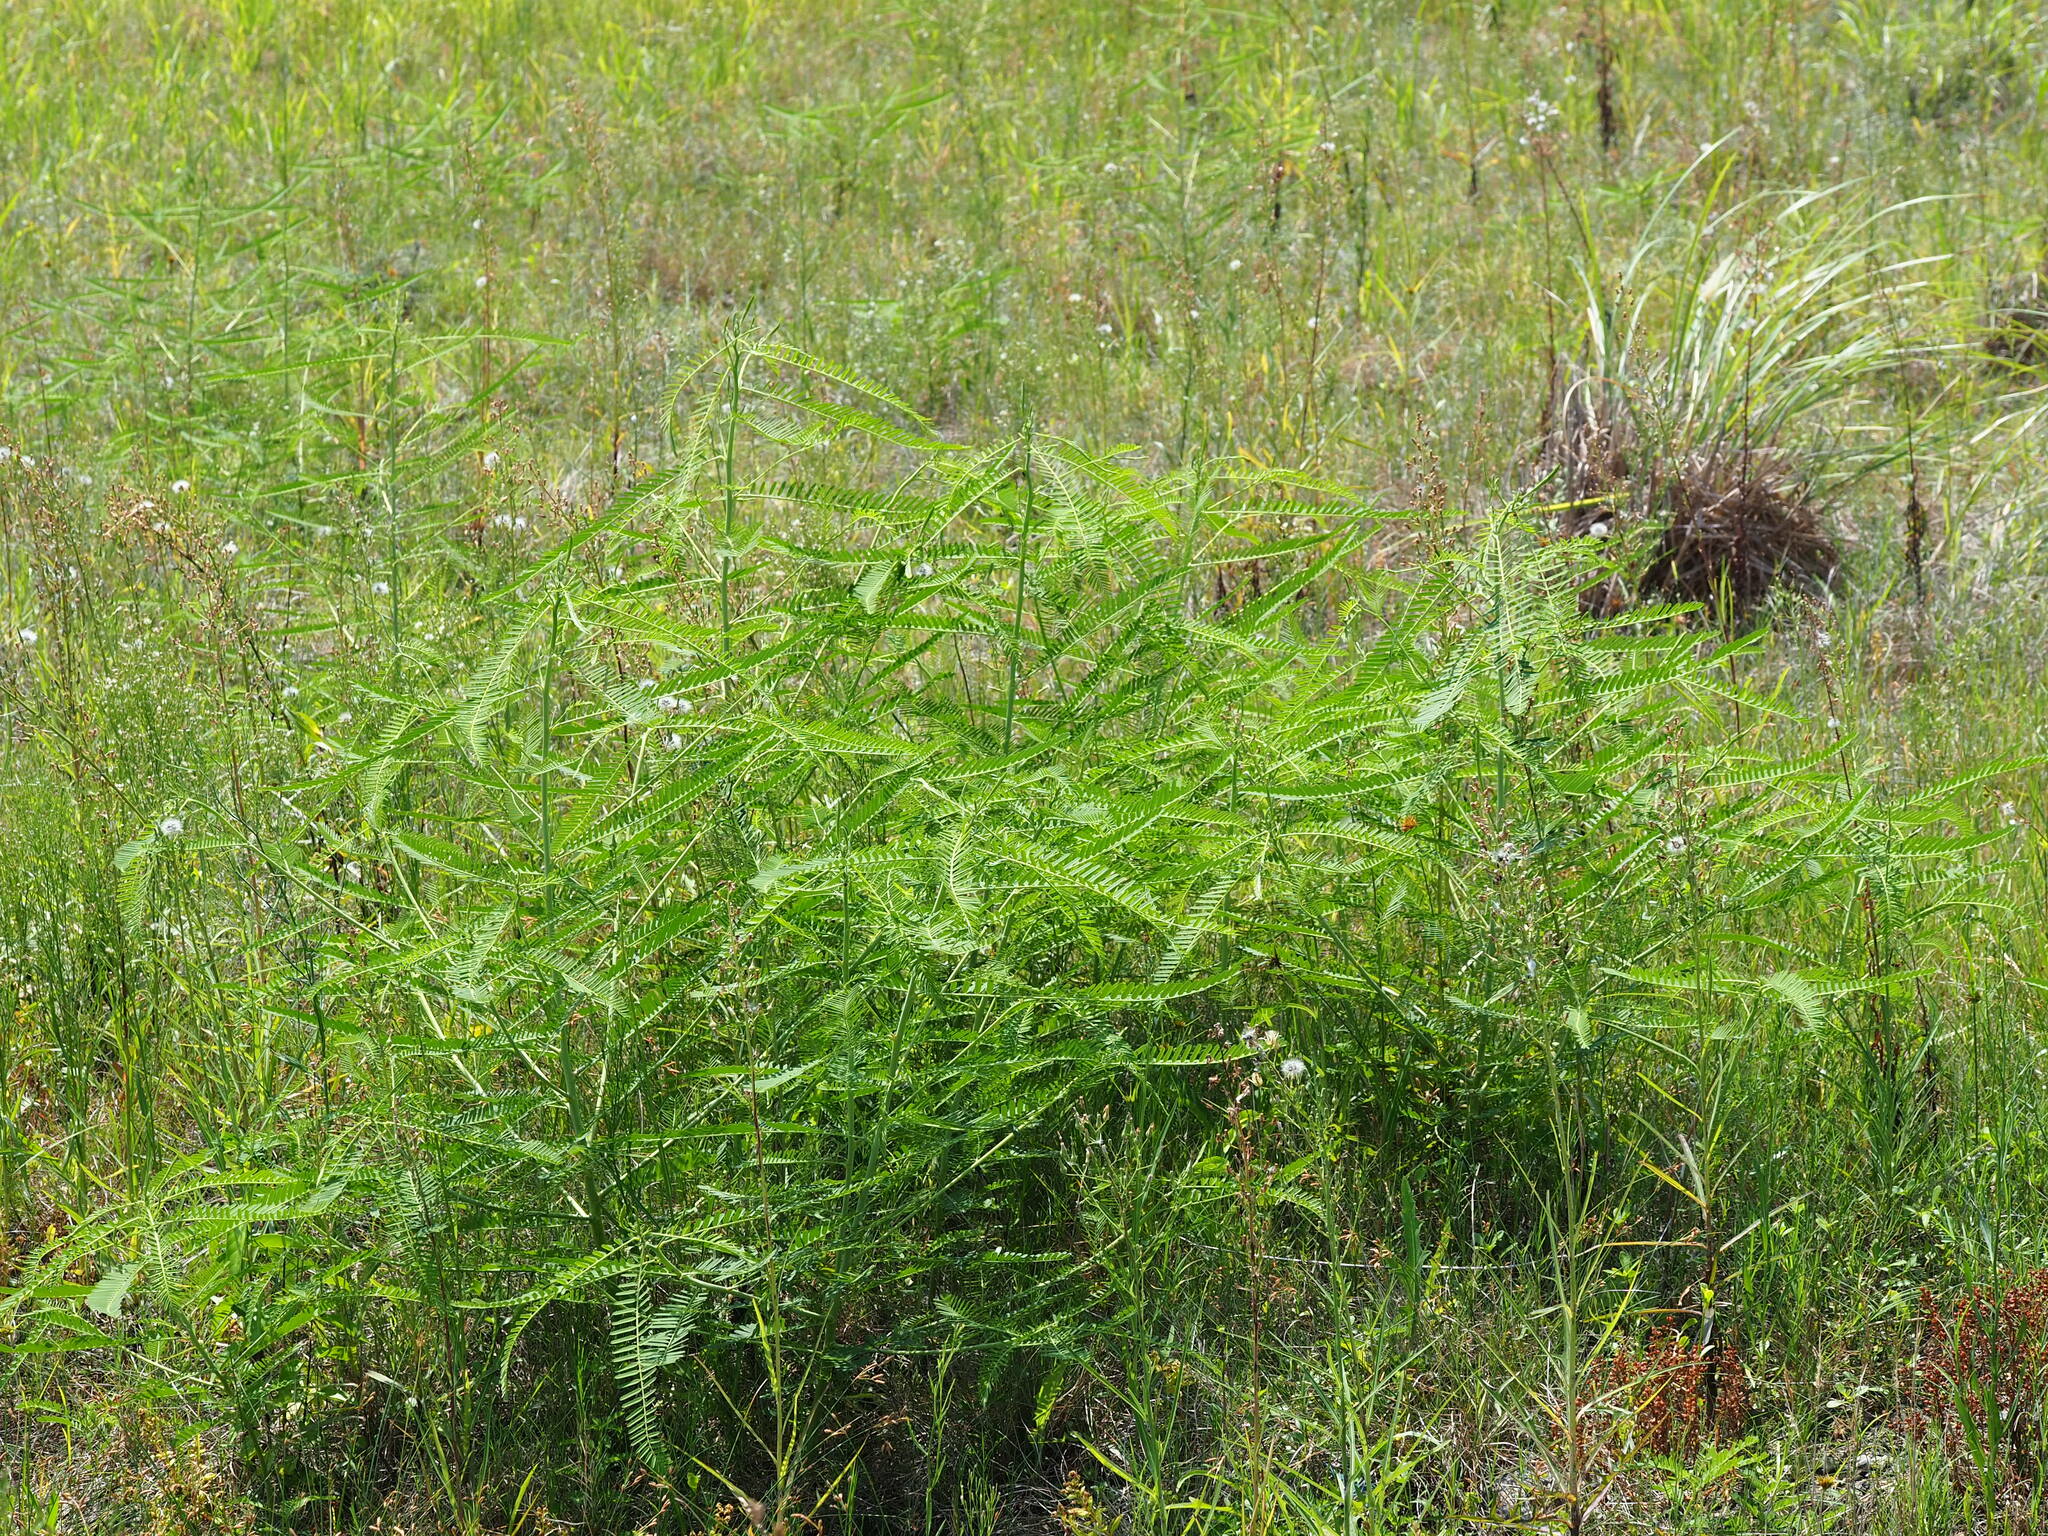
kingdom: Plantae
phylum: Tracheophyta
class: Magnoliopsida
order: Fabales
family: Fabaceae
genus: Sesbania
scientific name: Sesbania cannabina
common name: Canicha
